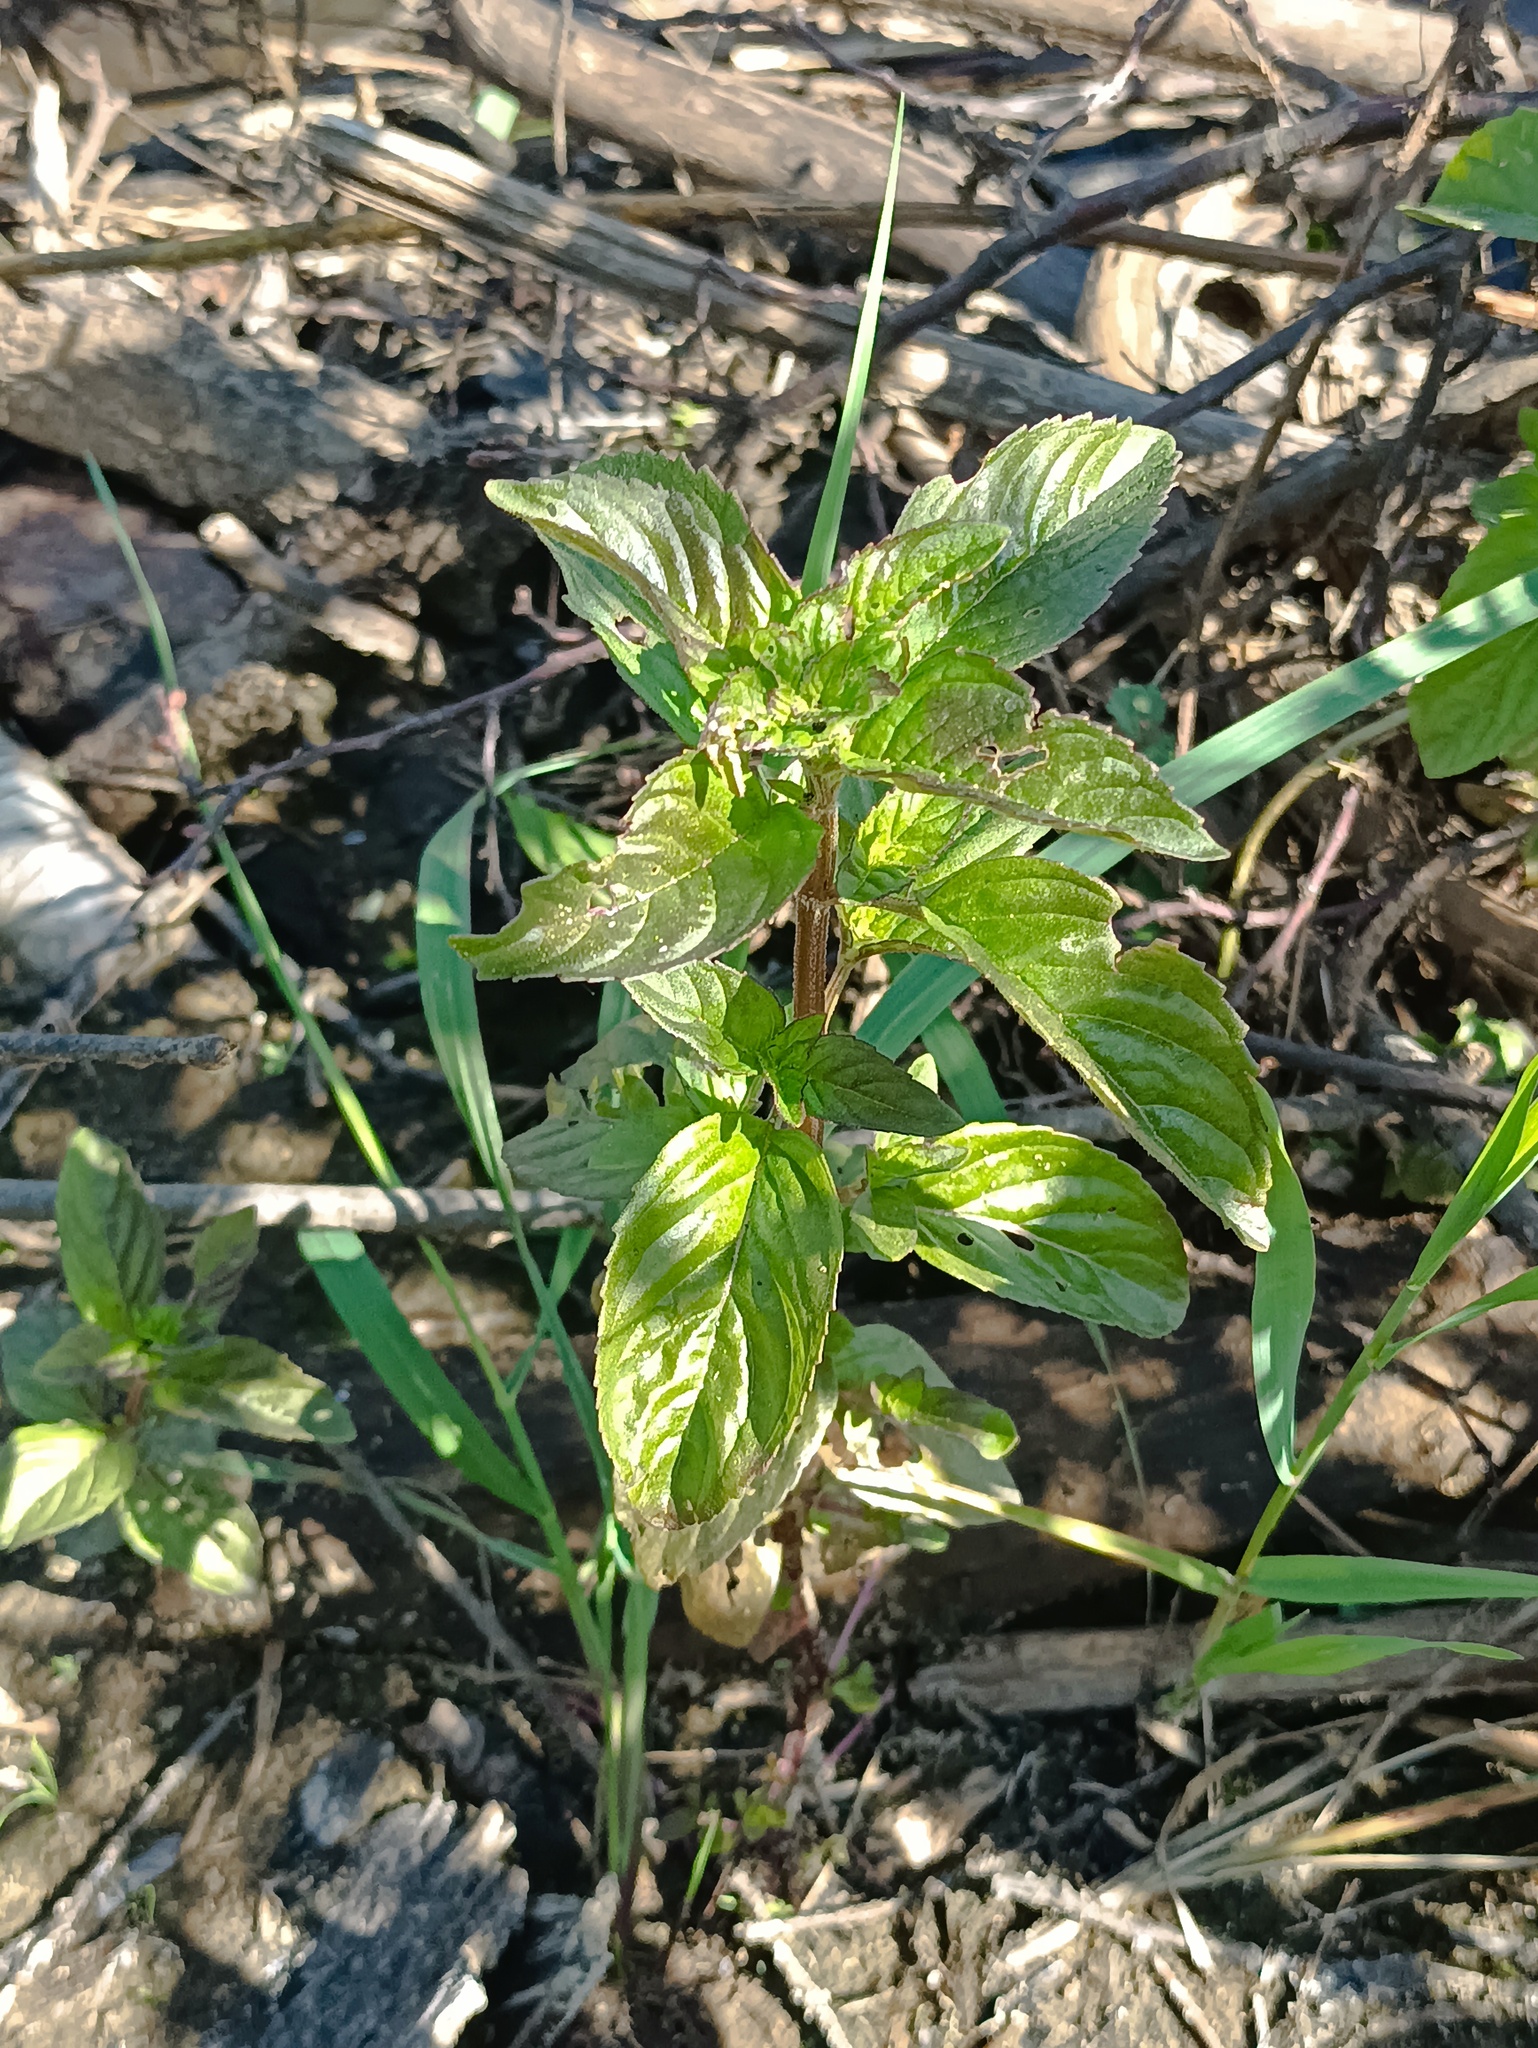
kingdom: Plantae
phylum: Tracheophyta
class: Magnoliopsida
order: Lamiales
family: Lamiaceae
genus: Mentha
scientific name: Mentha arvensis
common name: Corn mint
